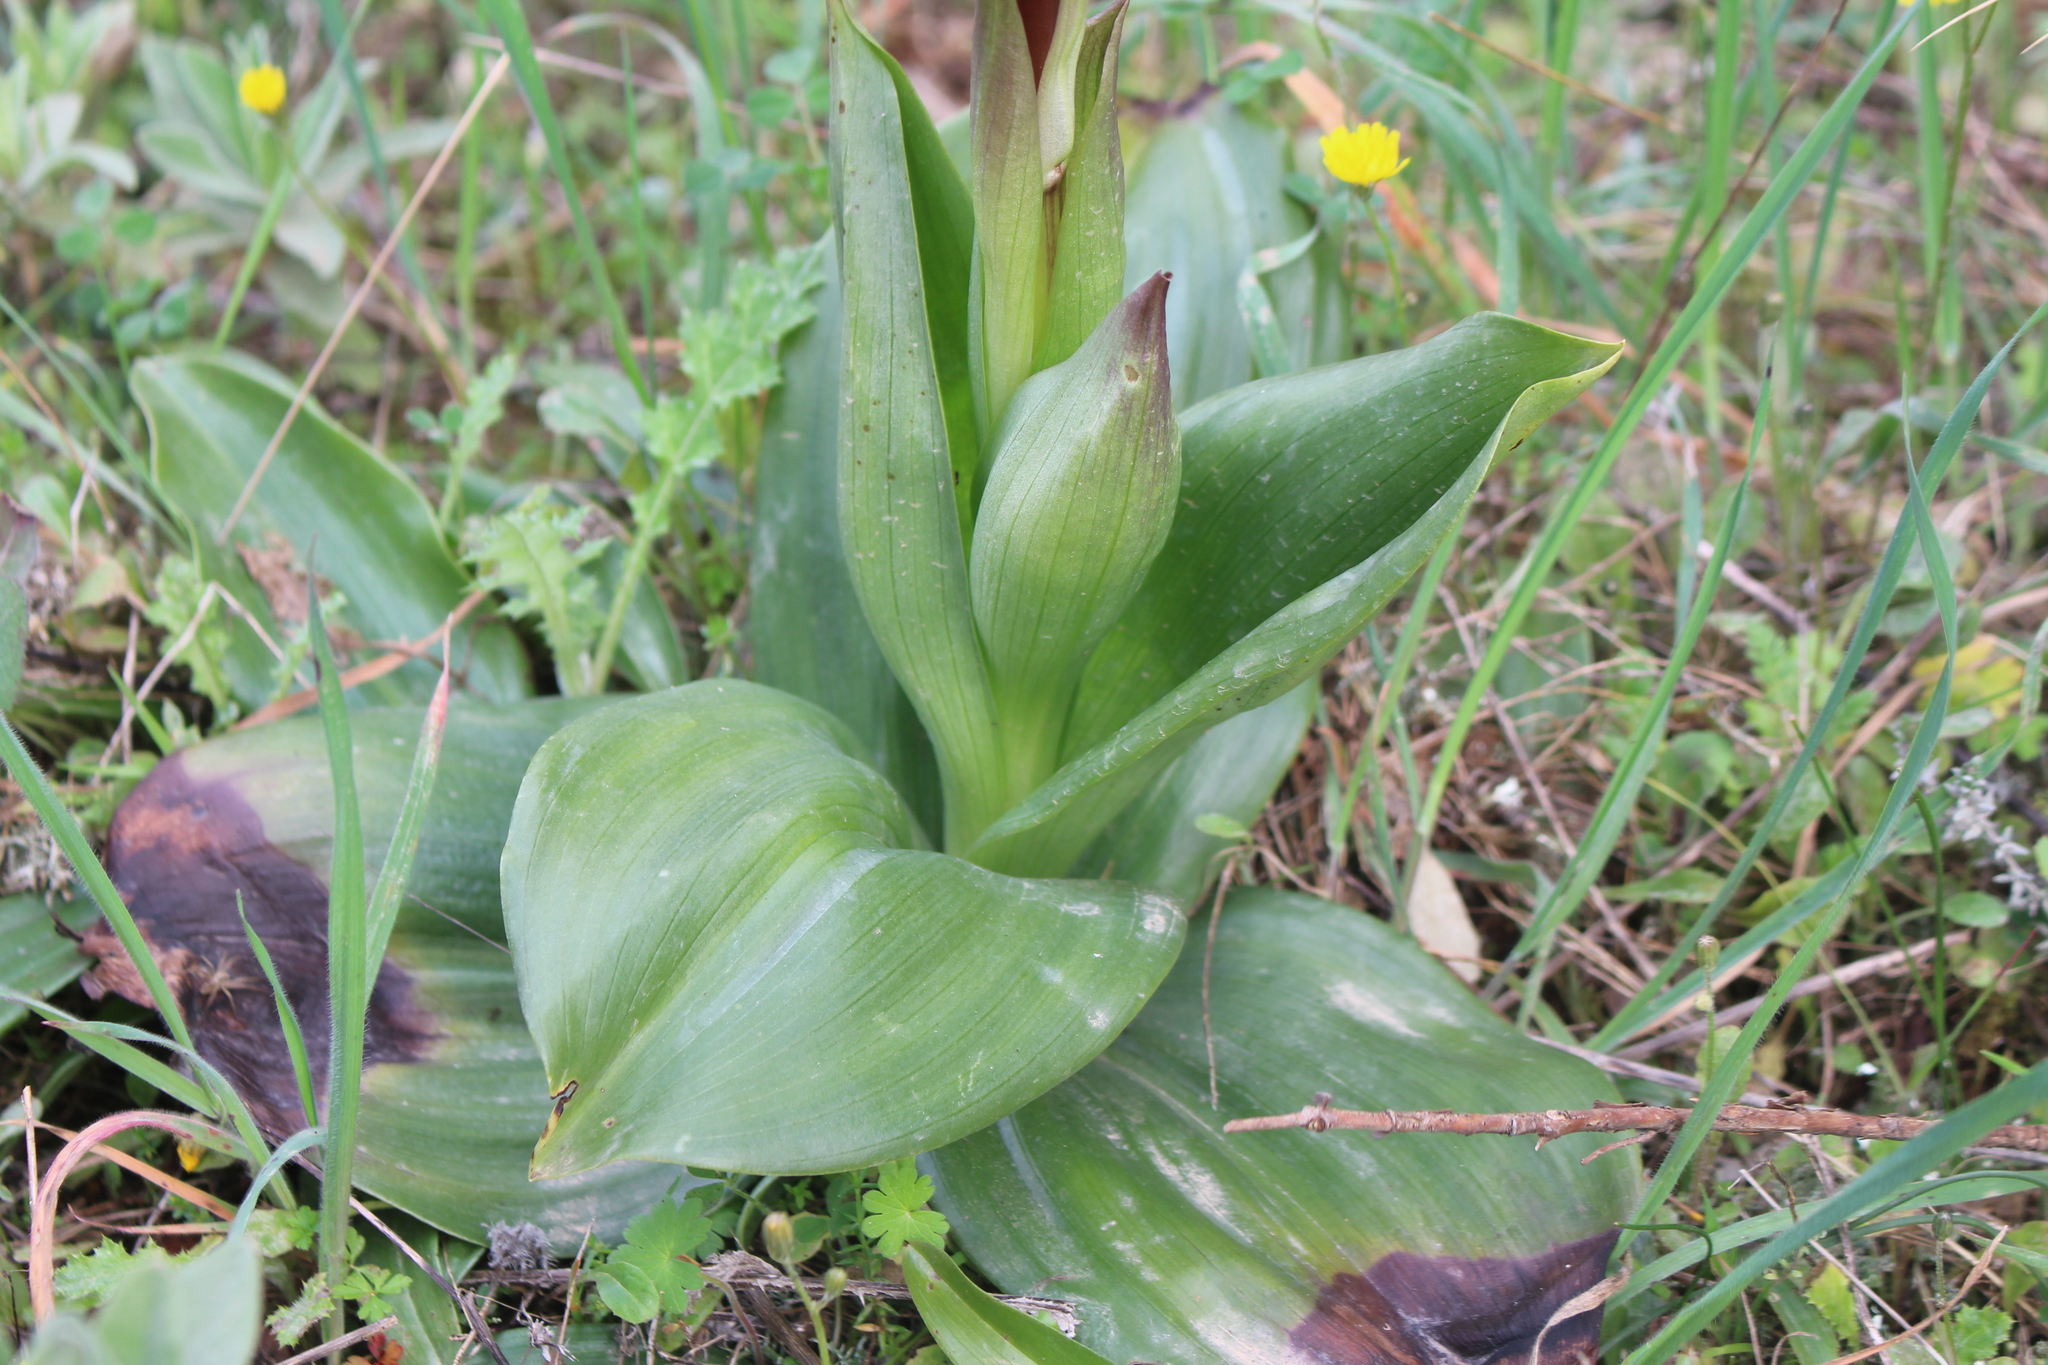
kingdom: Plantae
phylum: Tracheophyta
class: Liliopsida
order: Asparagales
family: Orchidaceae
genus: Himantoglossum
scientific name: Himantoglossum robertianum
